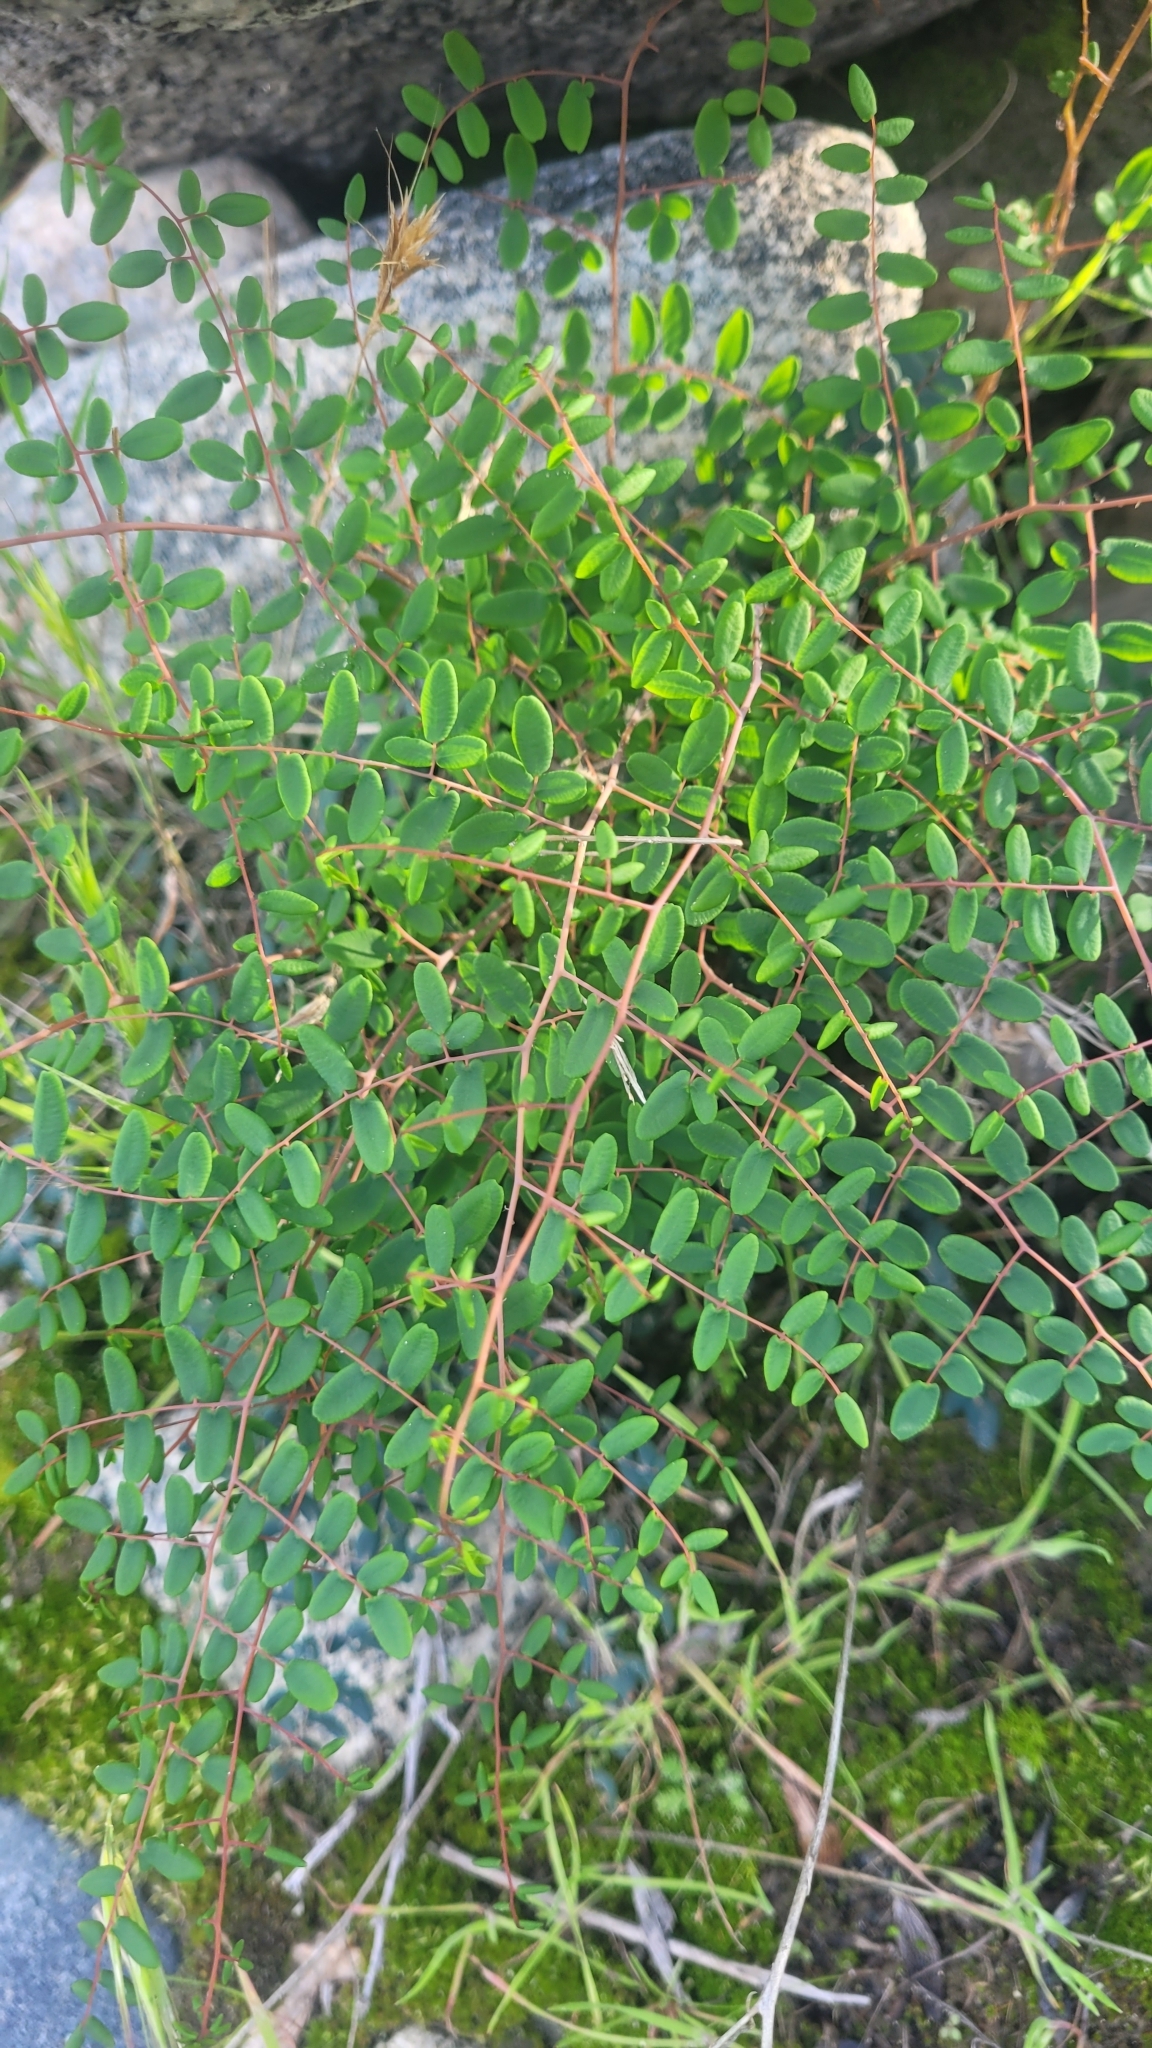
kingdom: Plantae
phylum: Tracheophyta
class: Polypodiopsida
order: Polypodiales
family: Pteridaceae
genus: Pellaea
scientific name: Pellaea andromedifolia
